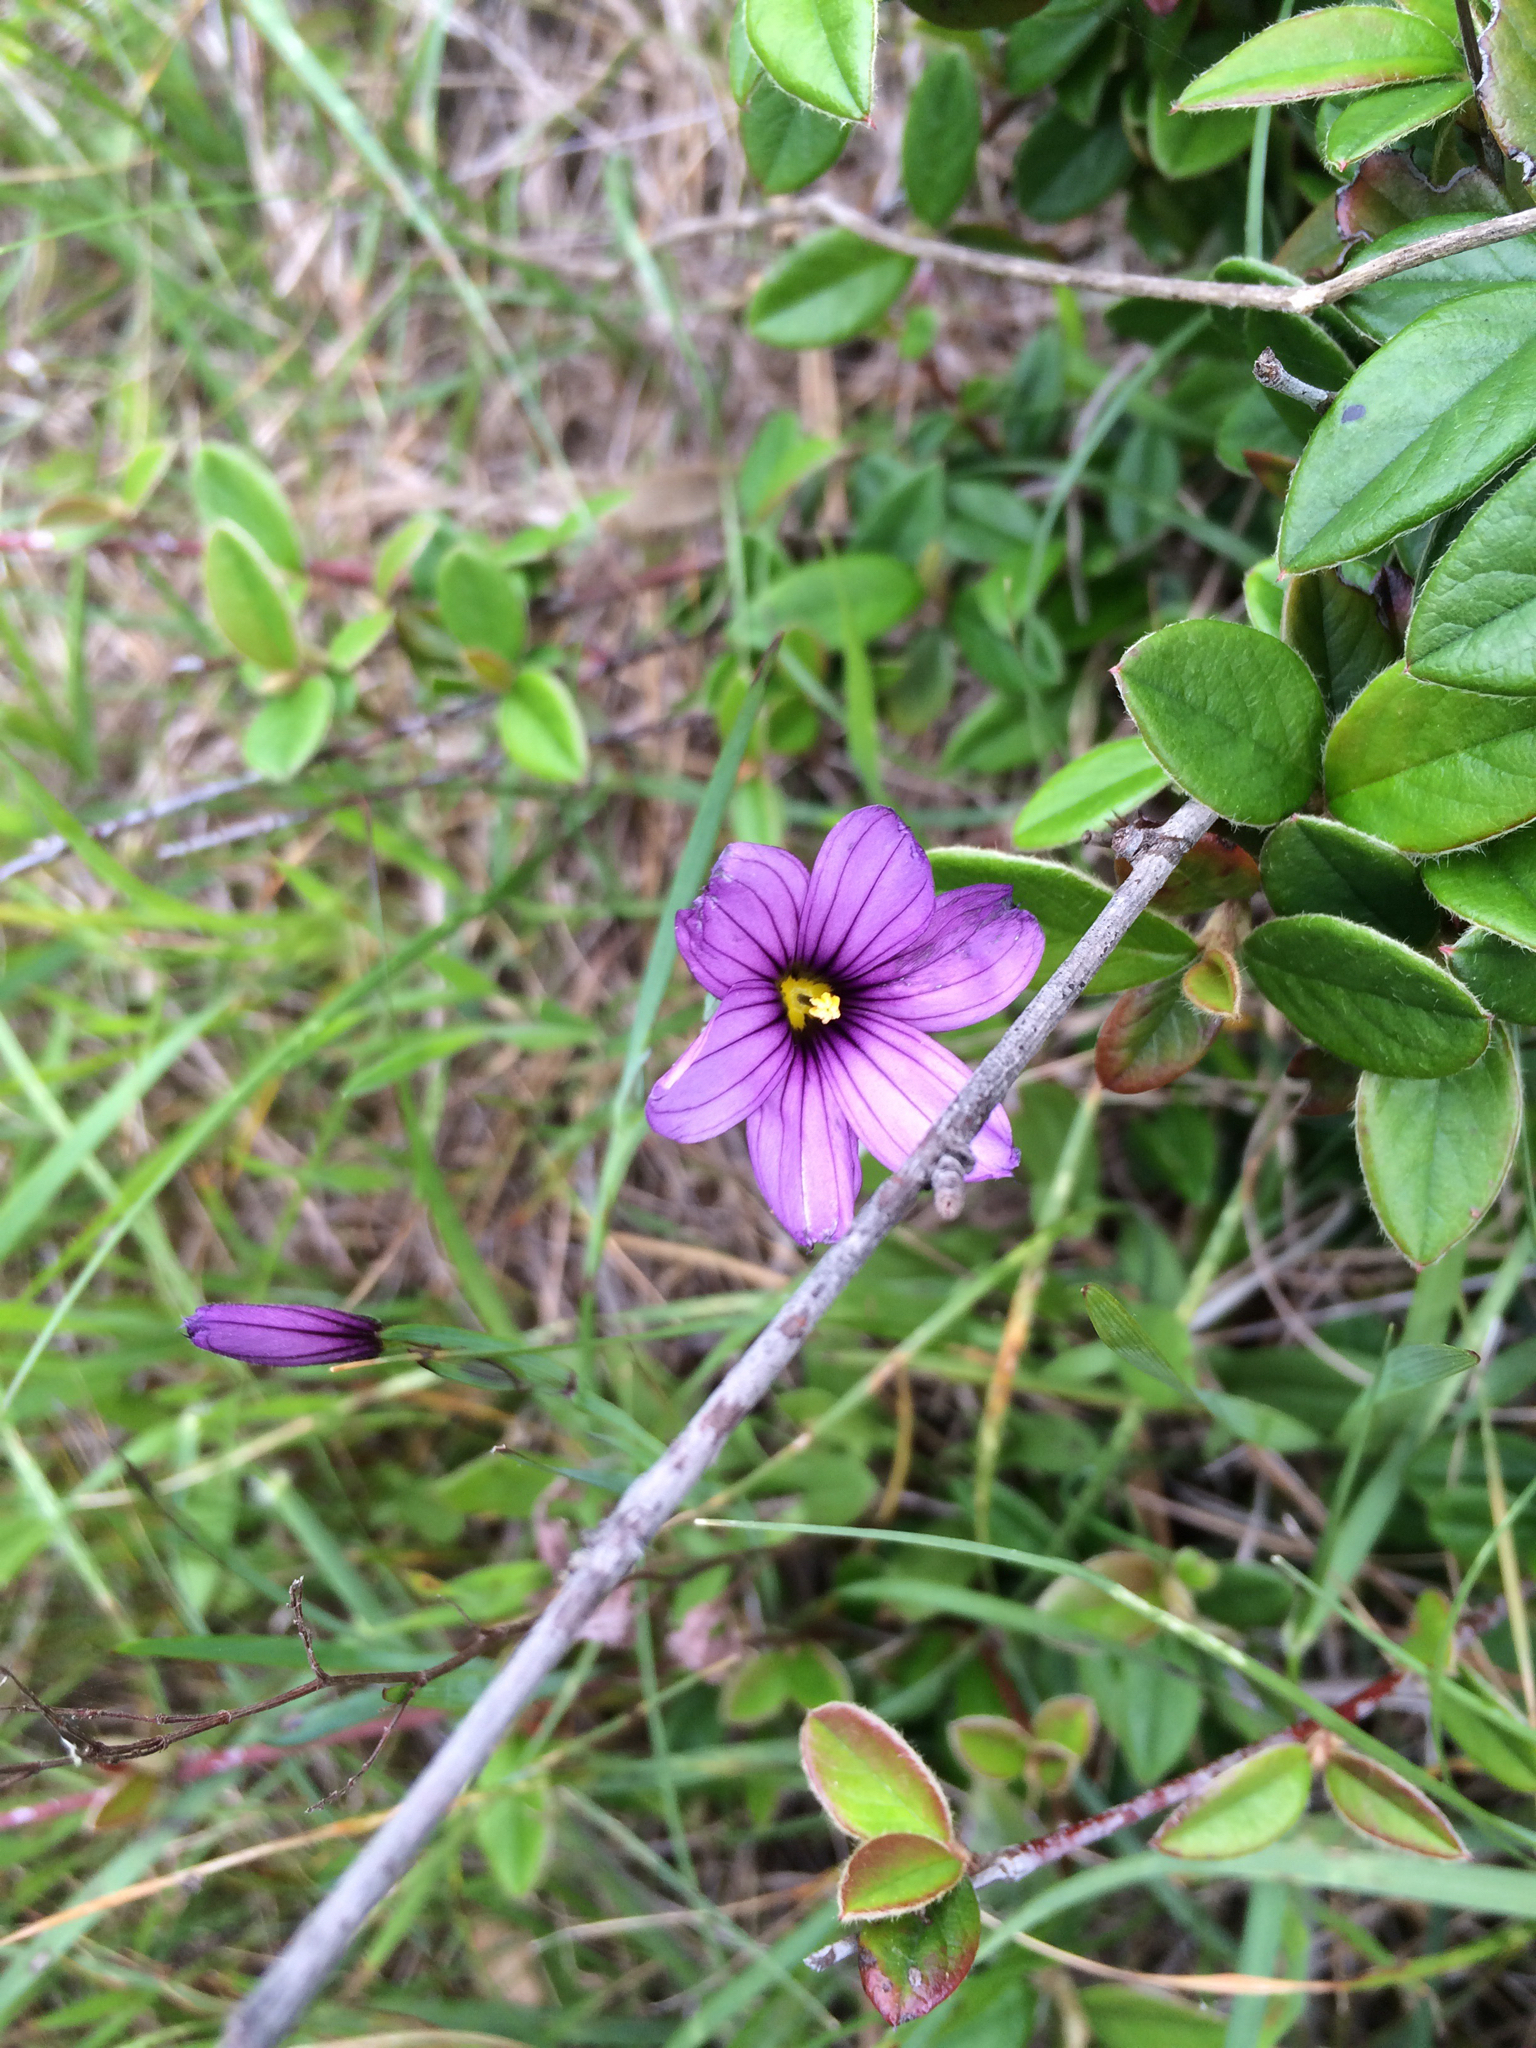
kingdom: Plantae
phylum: Tracheophyta
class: Liliopsida
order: Asparagales
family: Iridaceae
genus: Sisyrinchium
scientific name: Sisyrinchium bellum
